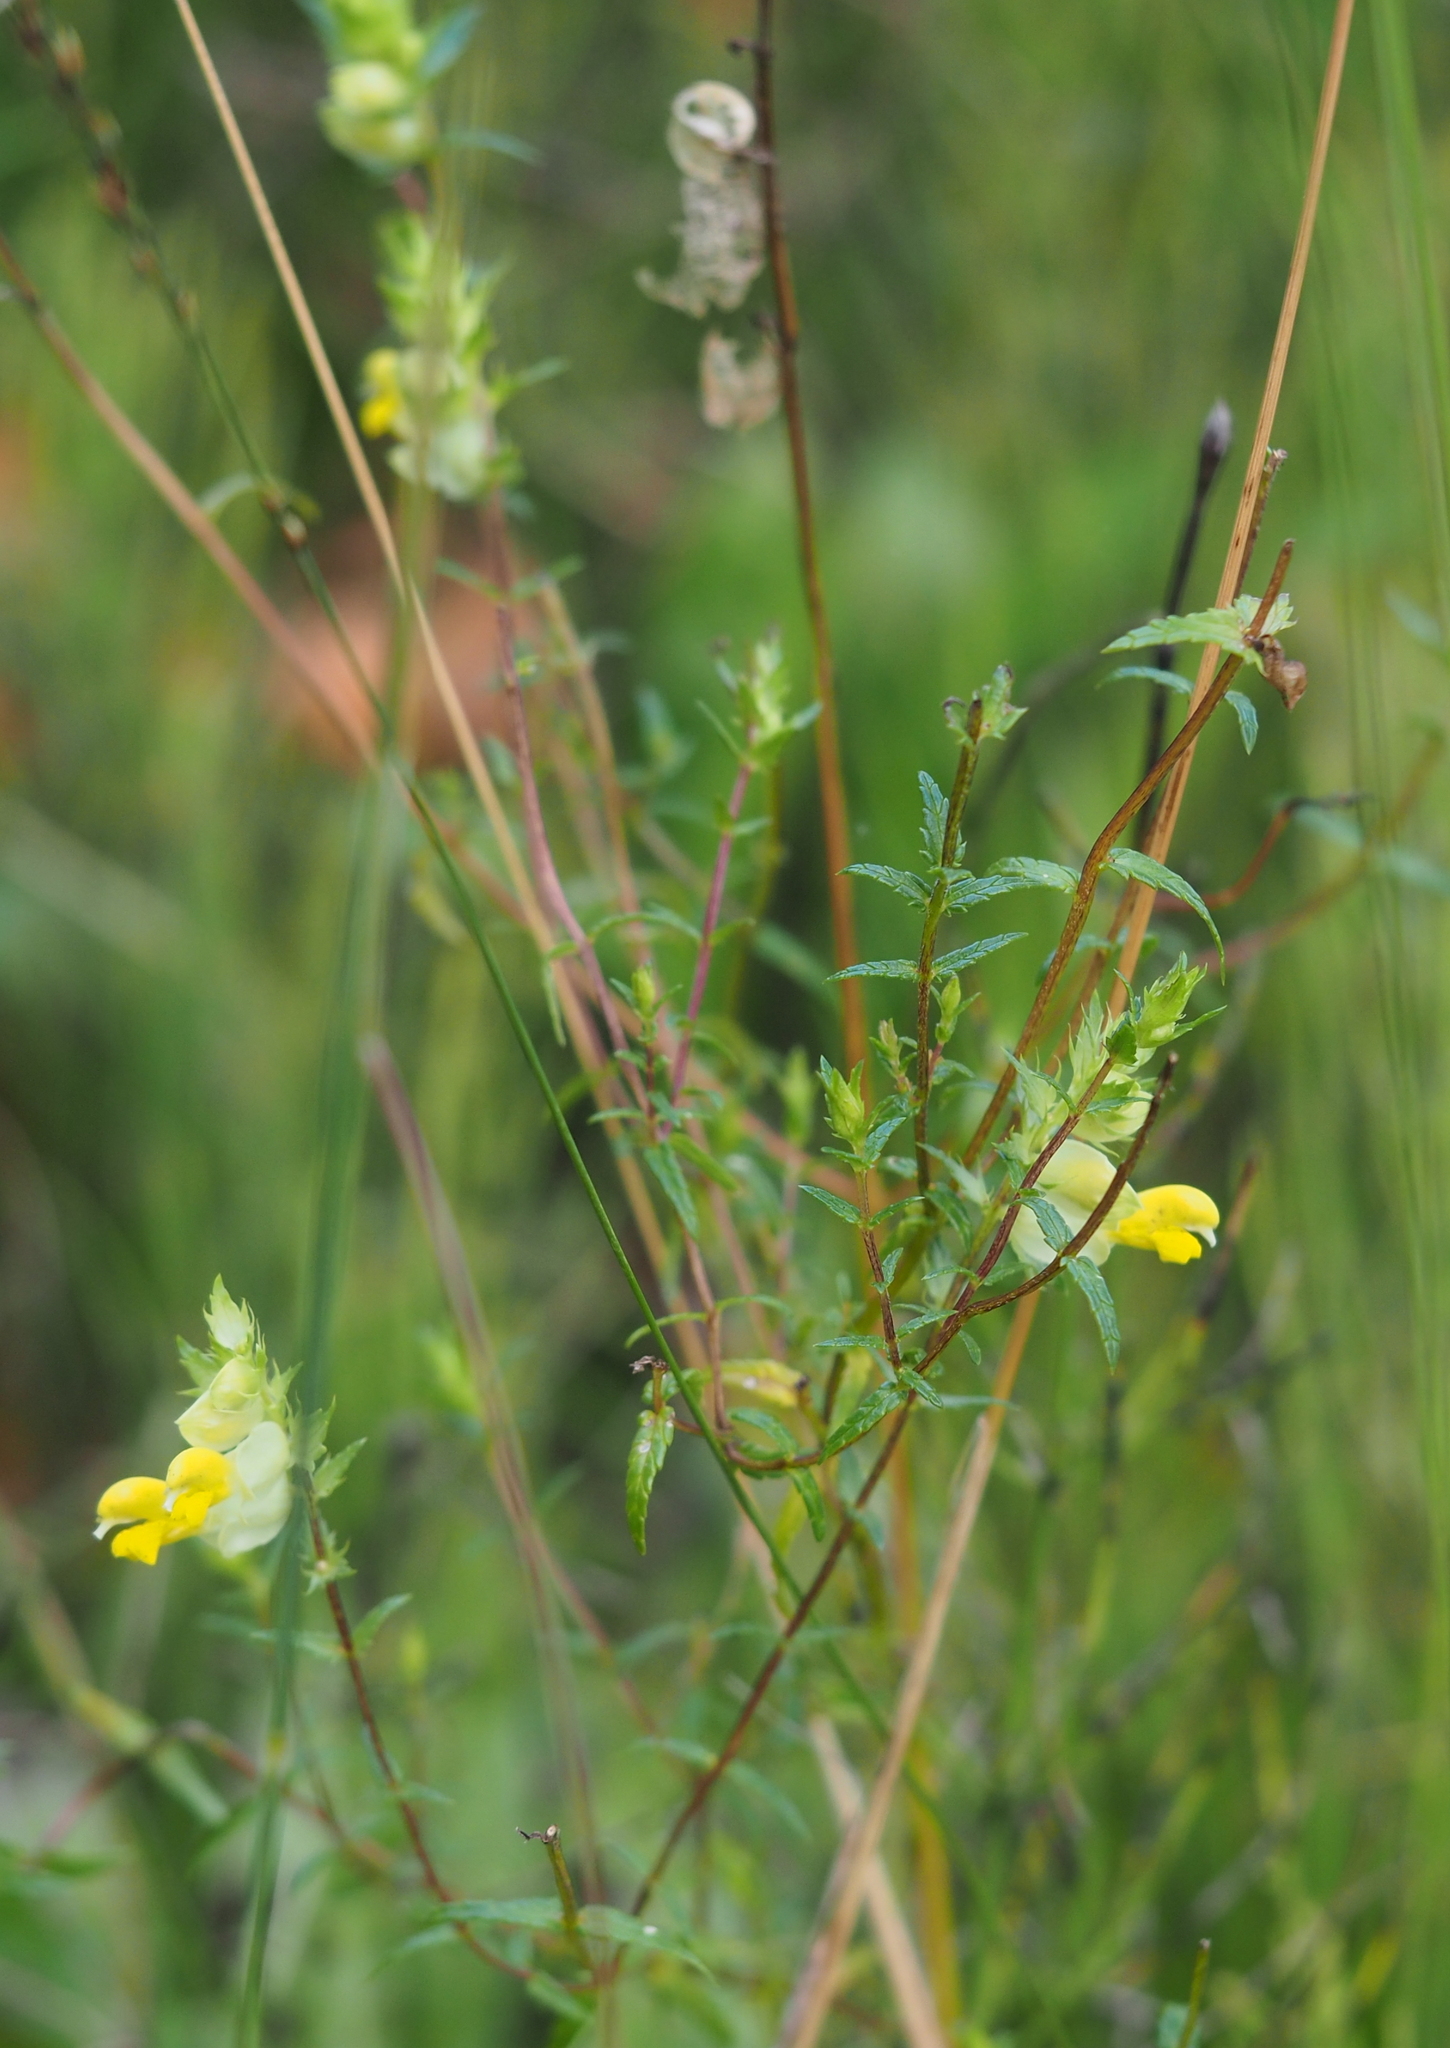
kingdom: Plantae
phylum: Tracheophyta
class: Magnoliopsida
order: Lamiales
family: Orobanchaceae
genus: Rhinanthus
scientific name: Rhinanthus glacialis
